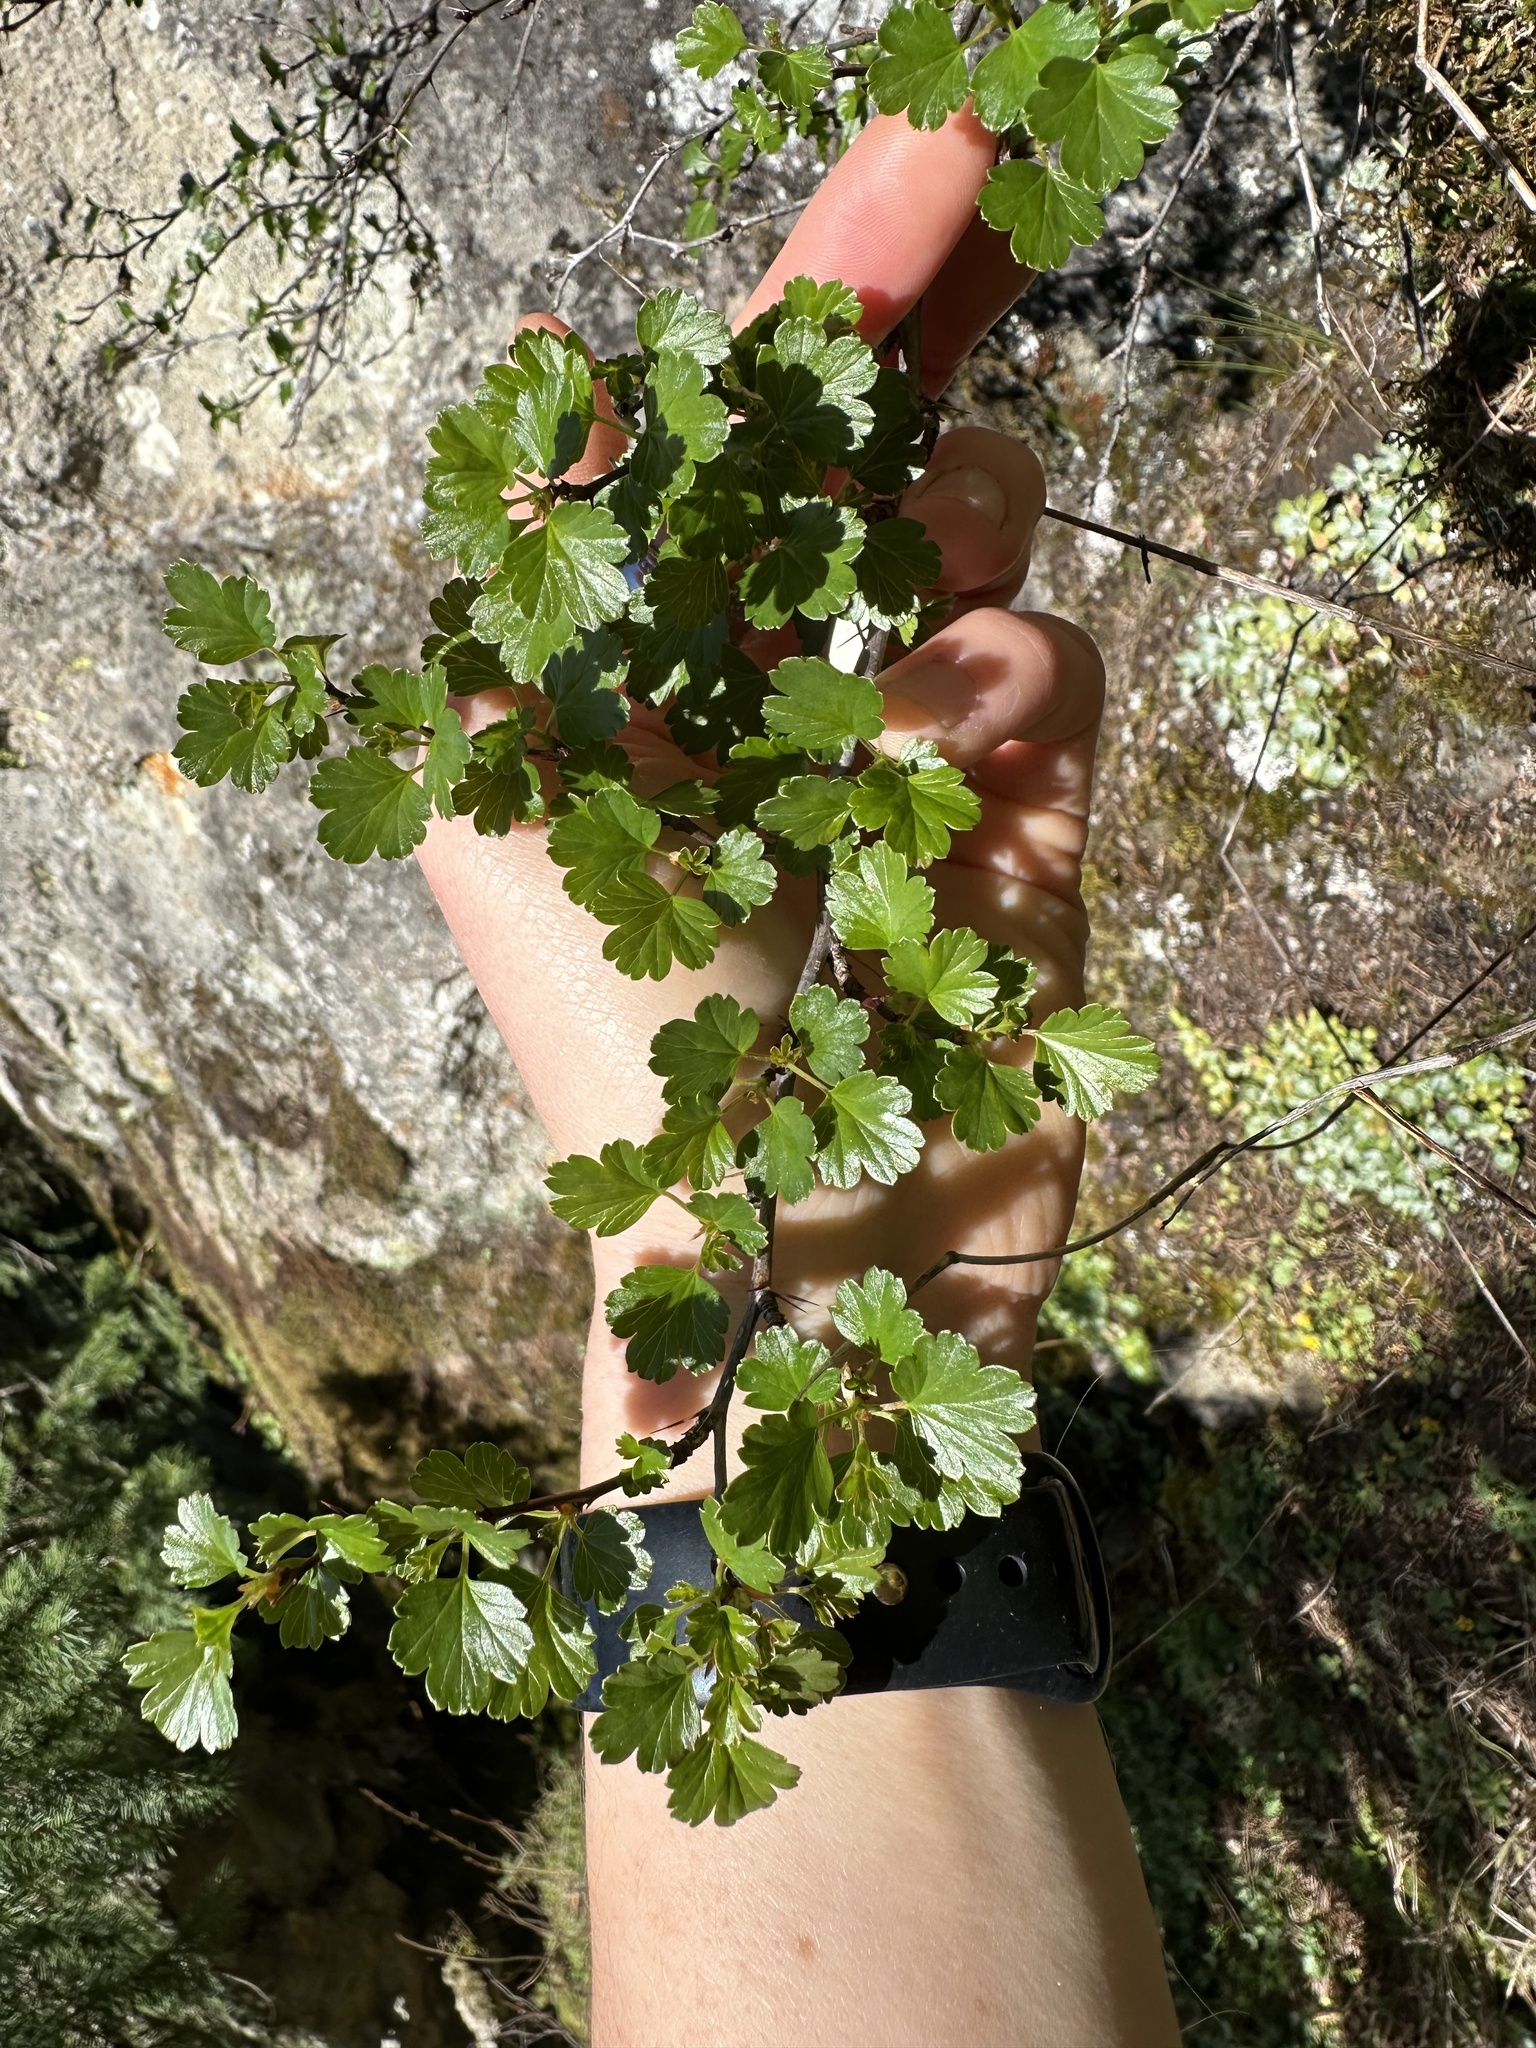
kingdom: Plantae
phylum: Tracheophyta
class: Magnoliopsida
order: Saxifragales
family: Grossulariaceae
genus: Ribes
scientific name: Ribes roezlii
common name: Sierra gooseberry
